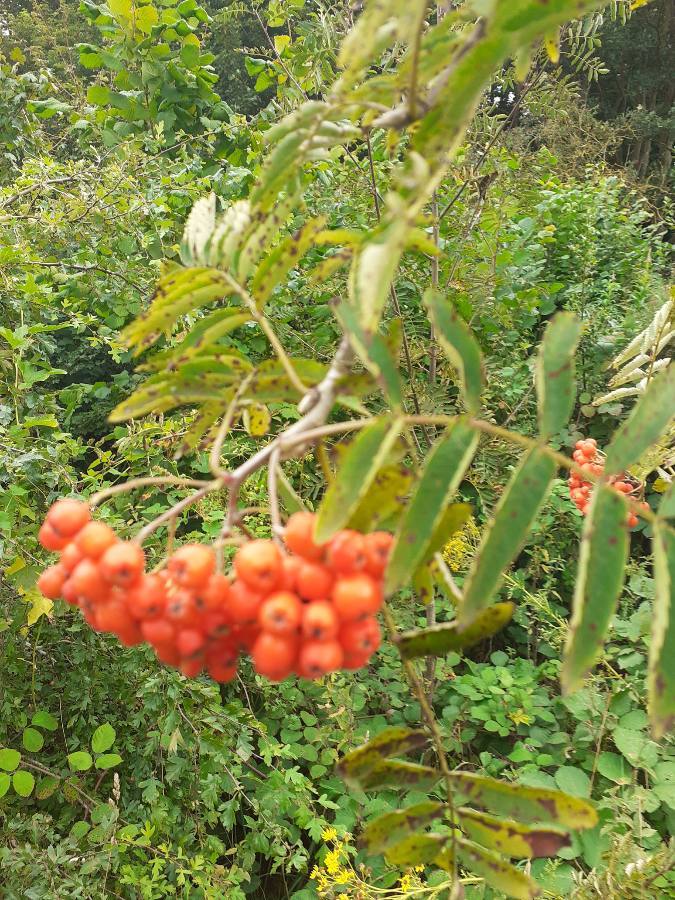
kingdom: Plantae
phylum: Tracheophyta
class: Magnoliopsida
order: Rosales
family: Rosaceae
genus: Sorbus
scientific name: Sorbus aucuparia
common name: Rowan
